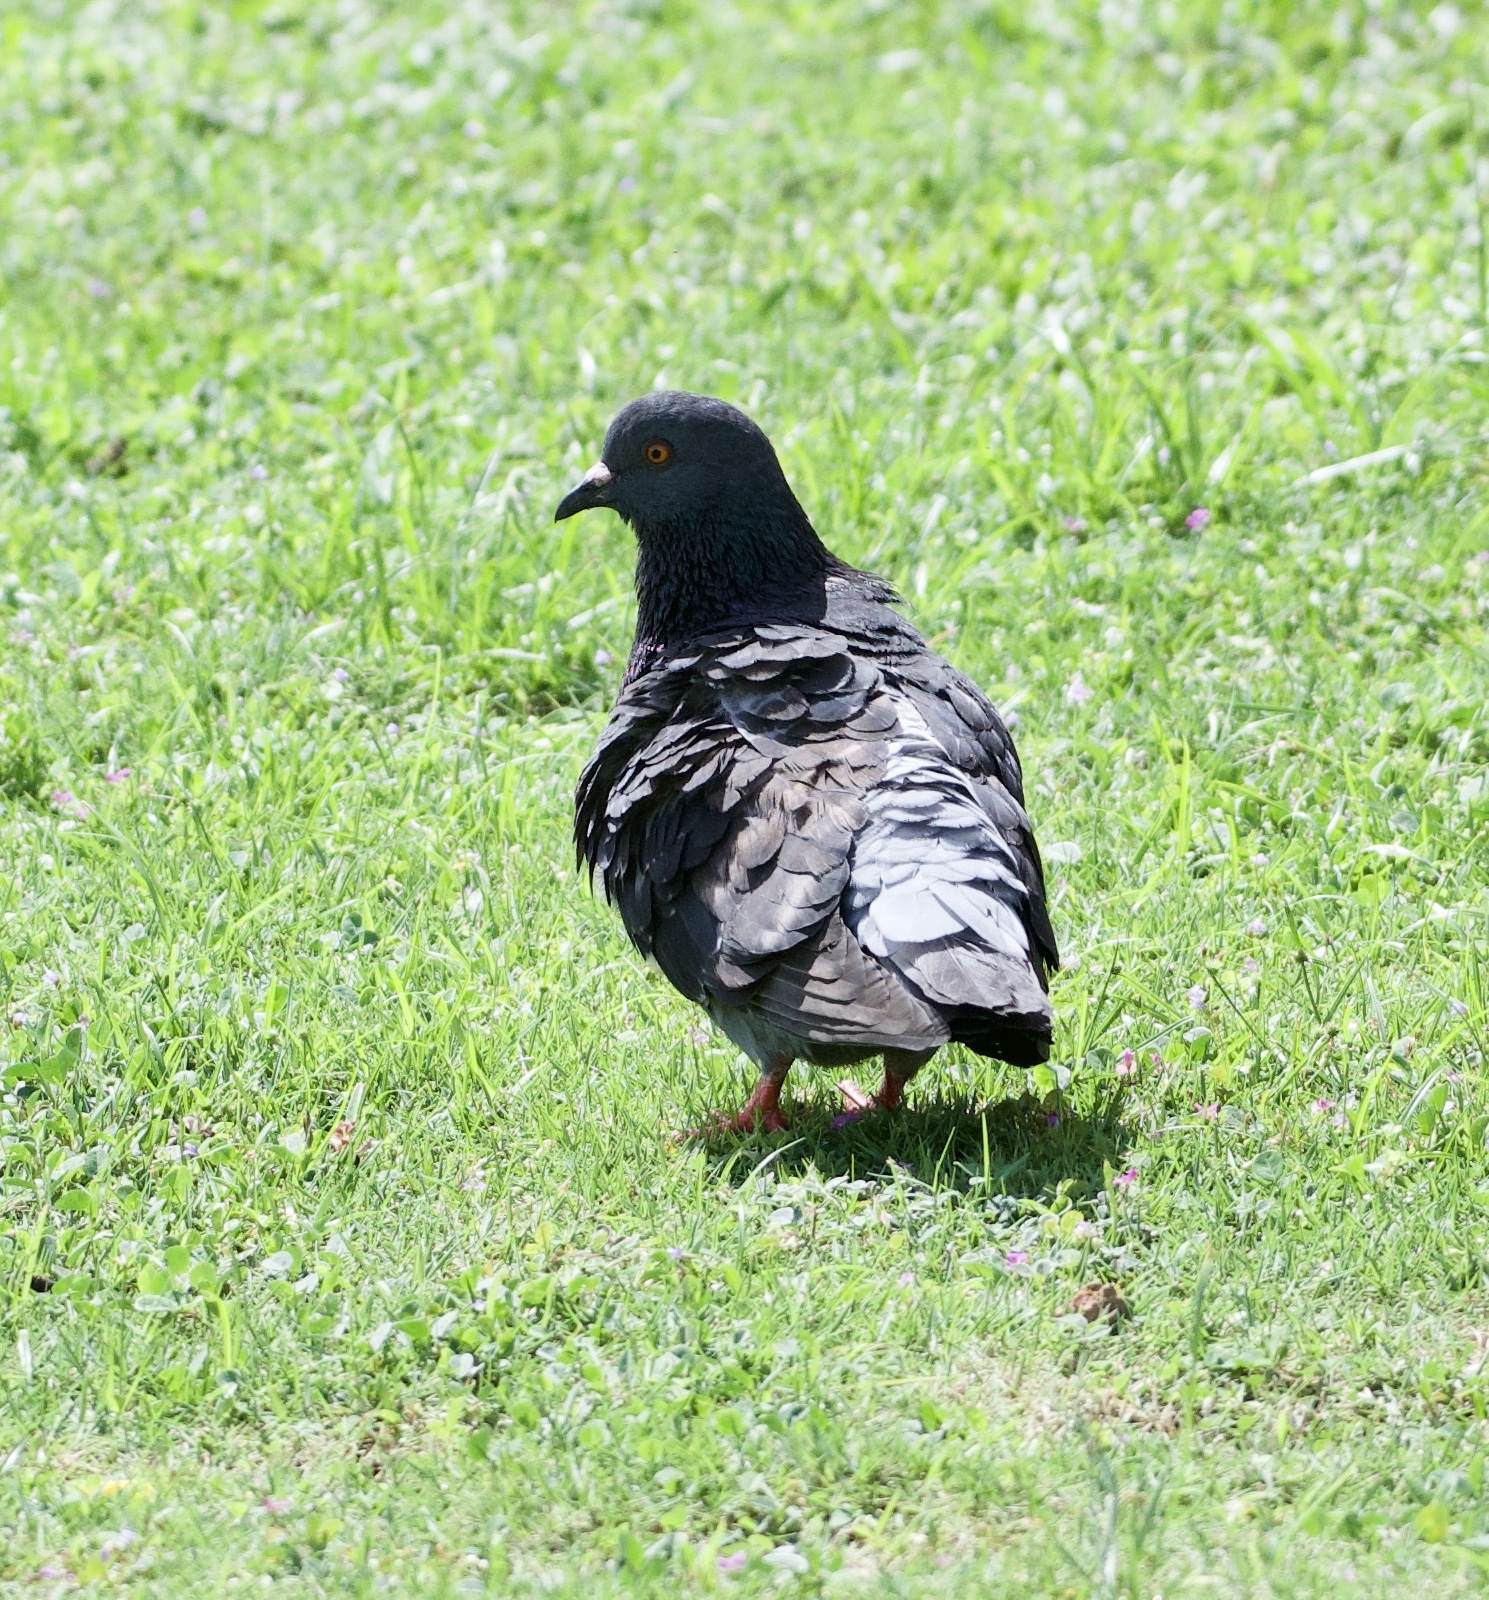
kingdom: Animalia
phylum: Chordata
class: Aves
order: Columbiformes
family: Columbidae
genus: Columba
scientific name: Columba livia
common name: Rock pigeon
